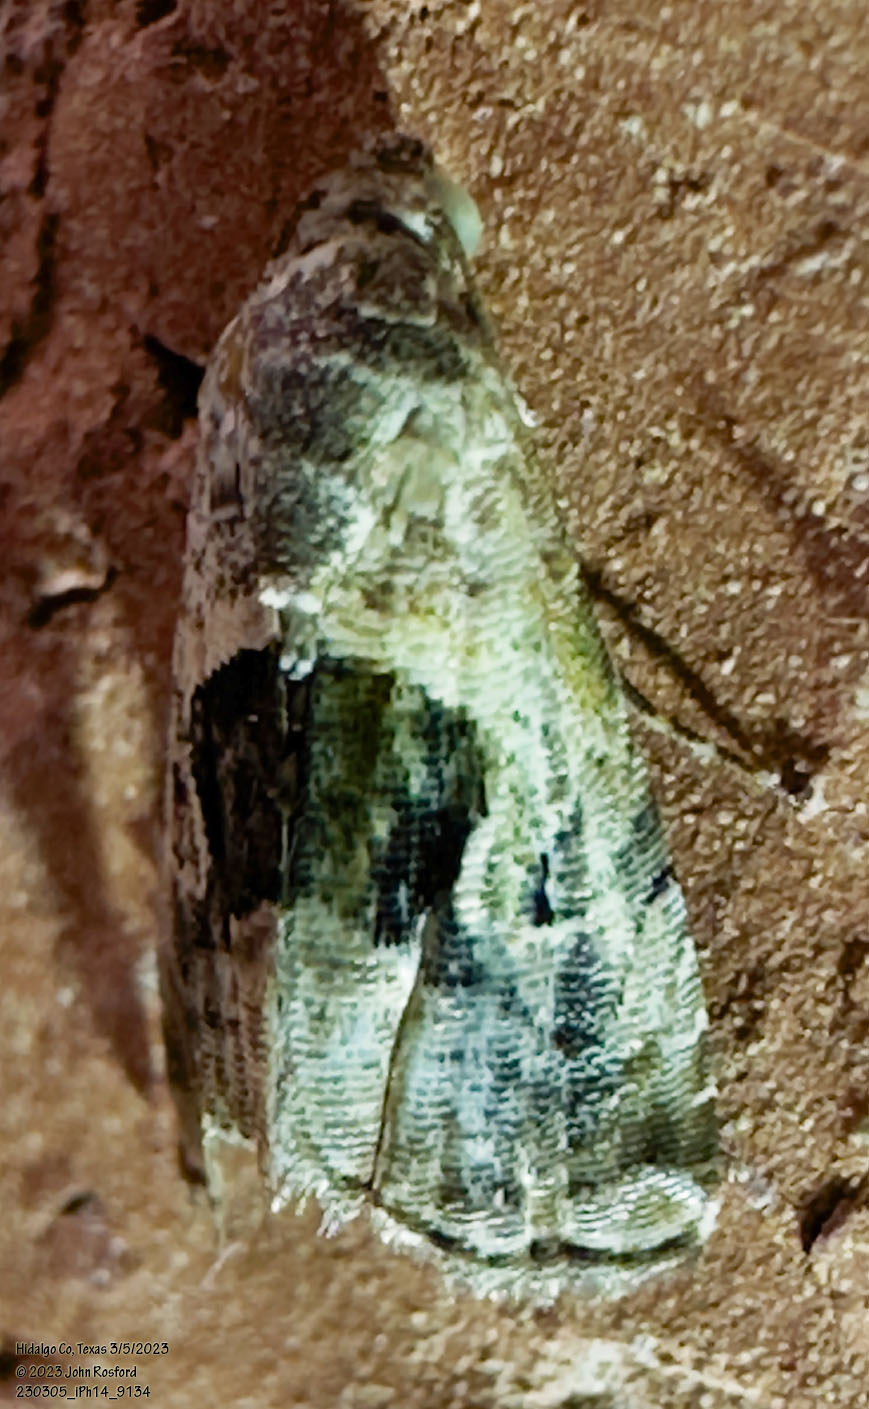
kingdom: Animalia
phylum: Arthropoda
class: Insecta
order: Lepidoptera
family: Noctuidae
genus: Tripudia
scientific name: Tripudia quadrifera
